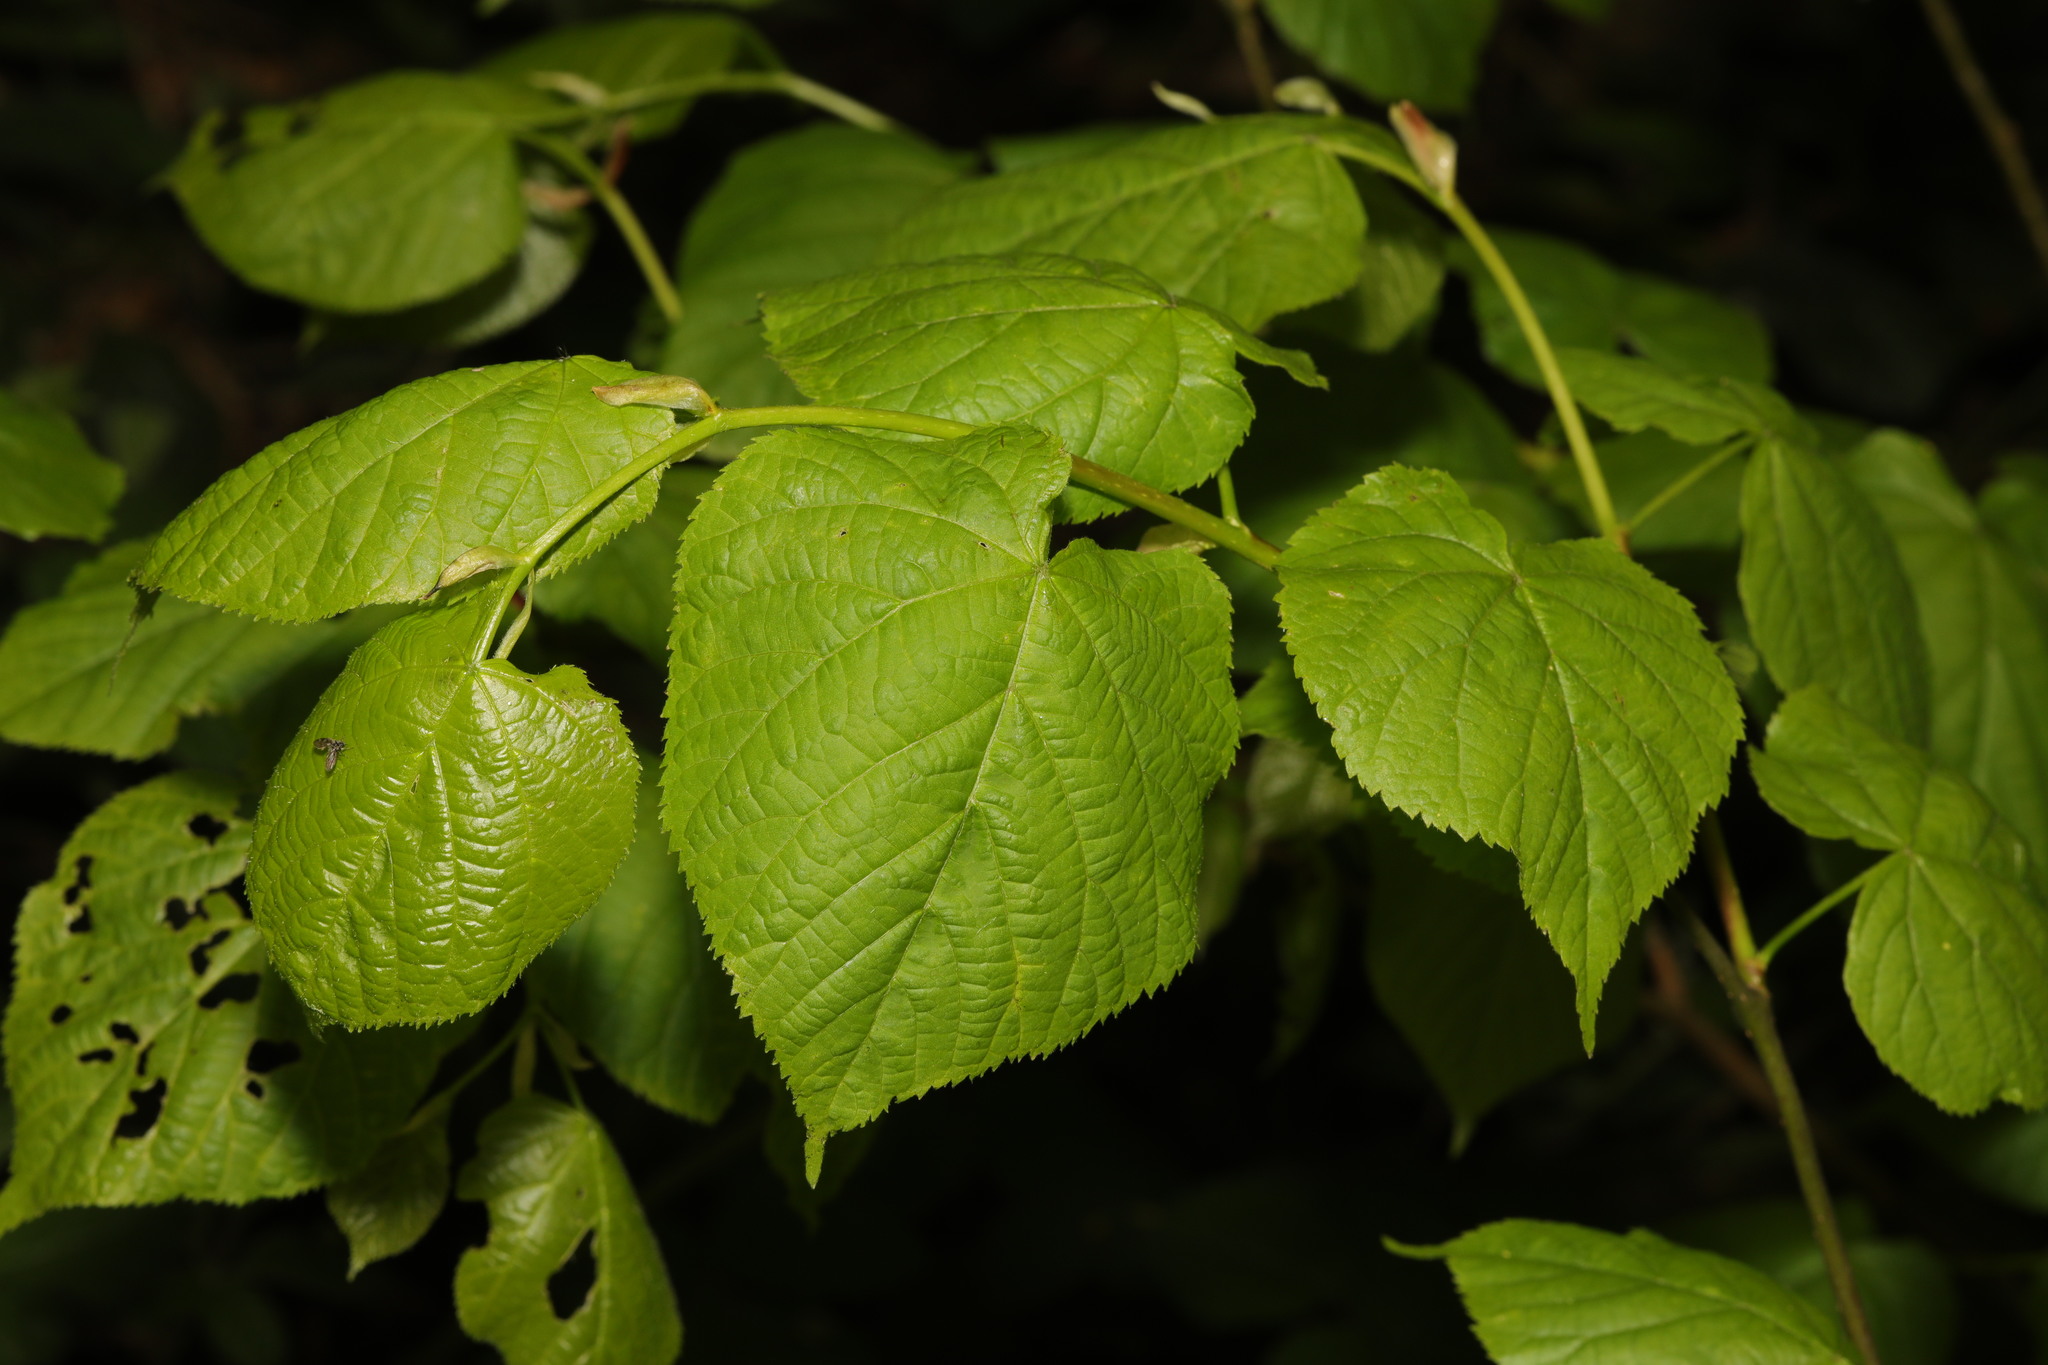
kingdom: Plantae
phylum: Tracheophyta
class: Magnoliopsida
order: Malvales
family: Malvaceae
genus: Tilia
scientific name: Tilia europaea
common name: European linden
